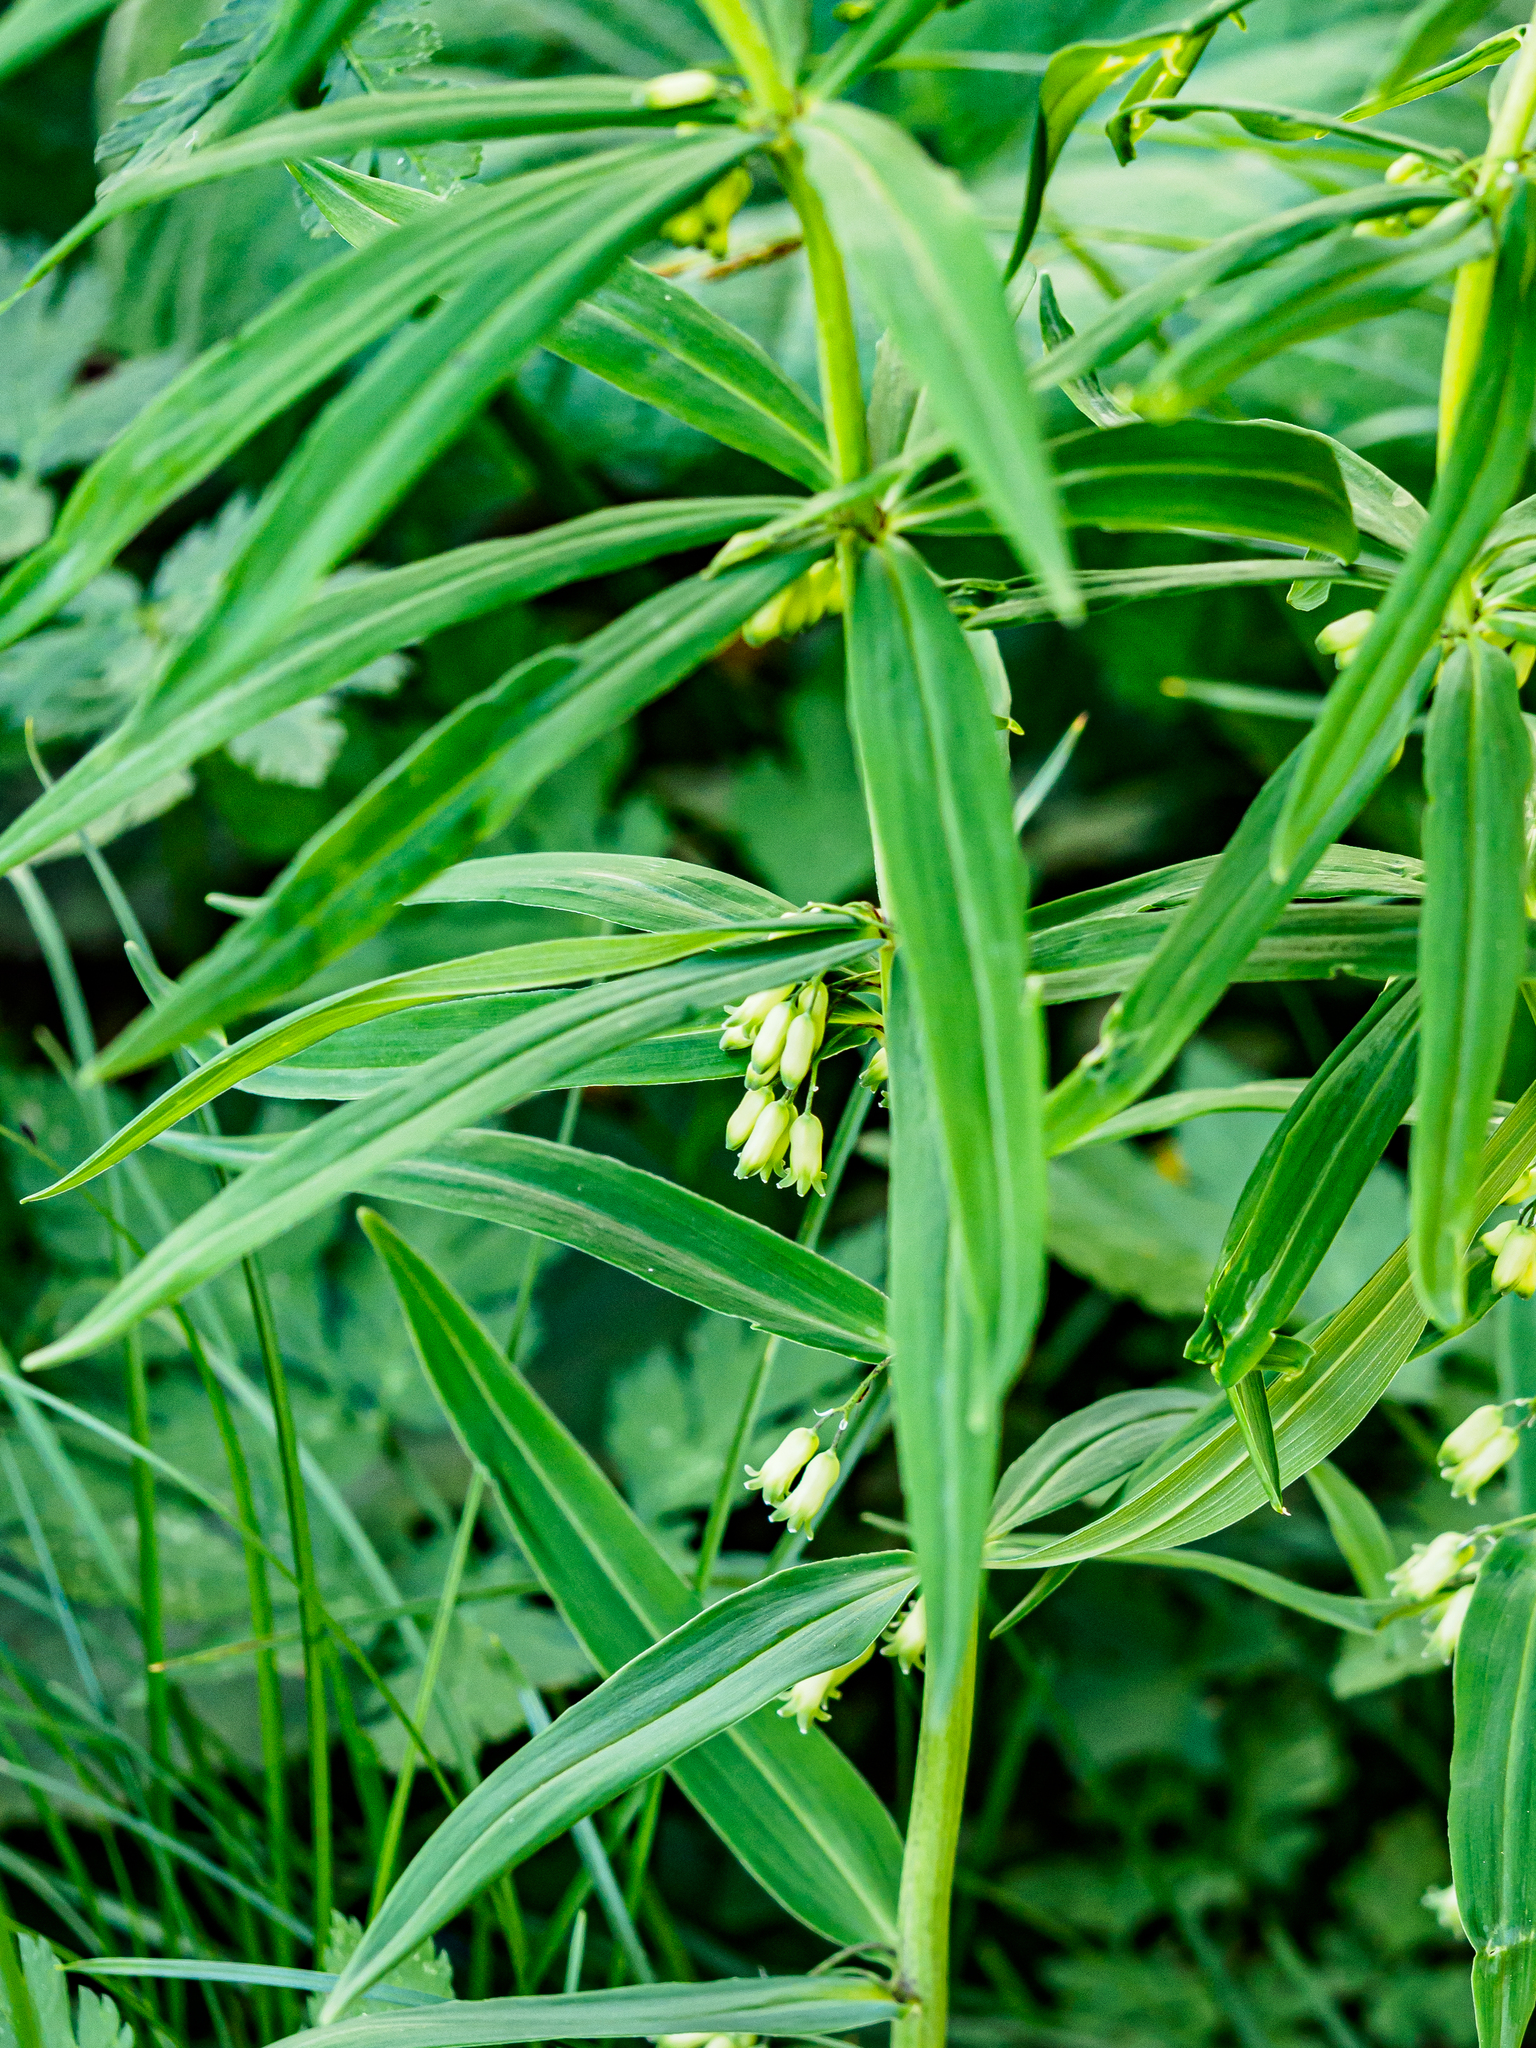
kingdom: Plantae
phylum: Tracheophyta
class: Liliopsida
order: Asparagales
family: Asparagaceae
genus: Polygonatum
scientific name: Polygonatum verticillatum
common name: Whorled solomon's-seal
